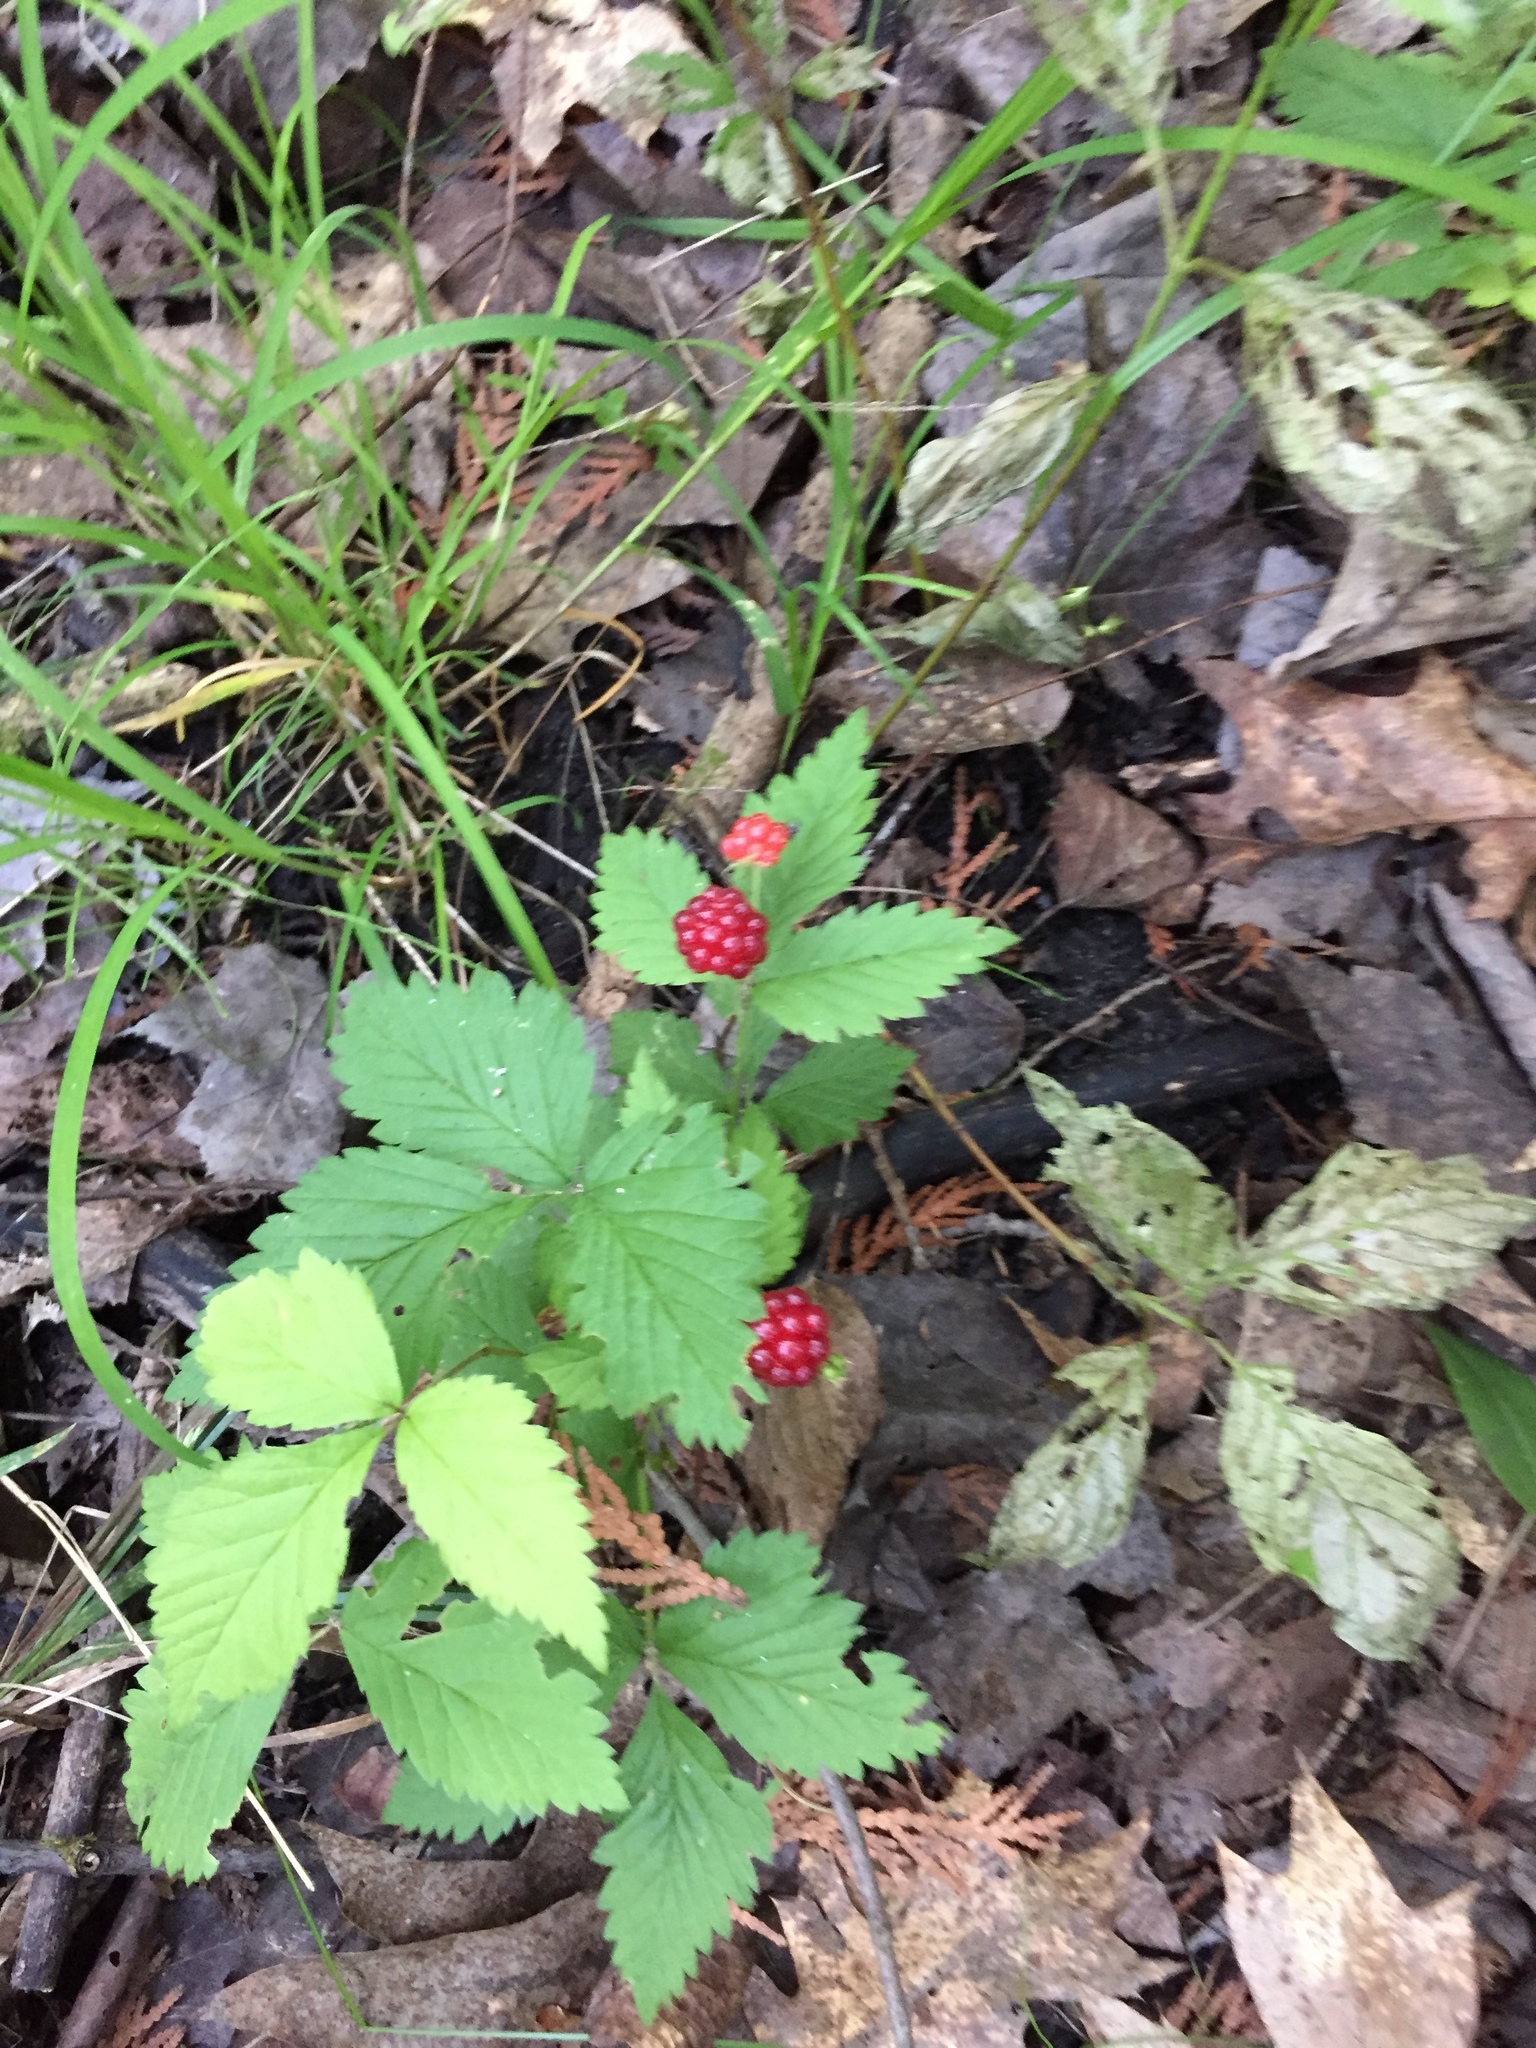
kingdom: Plantae
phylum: Tracheophyta
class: Magnoliopsida
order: Rosales
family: Rosaceae
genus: Rubus
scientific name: Rubus pubescens
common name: Dwarf raspberry
